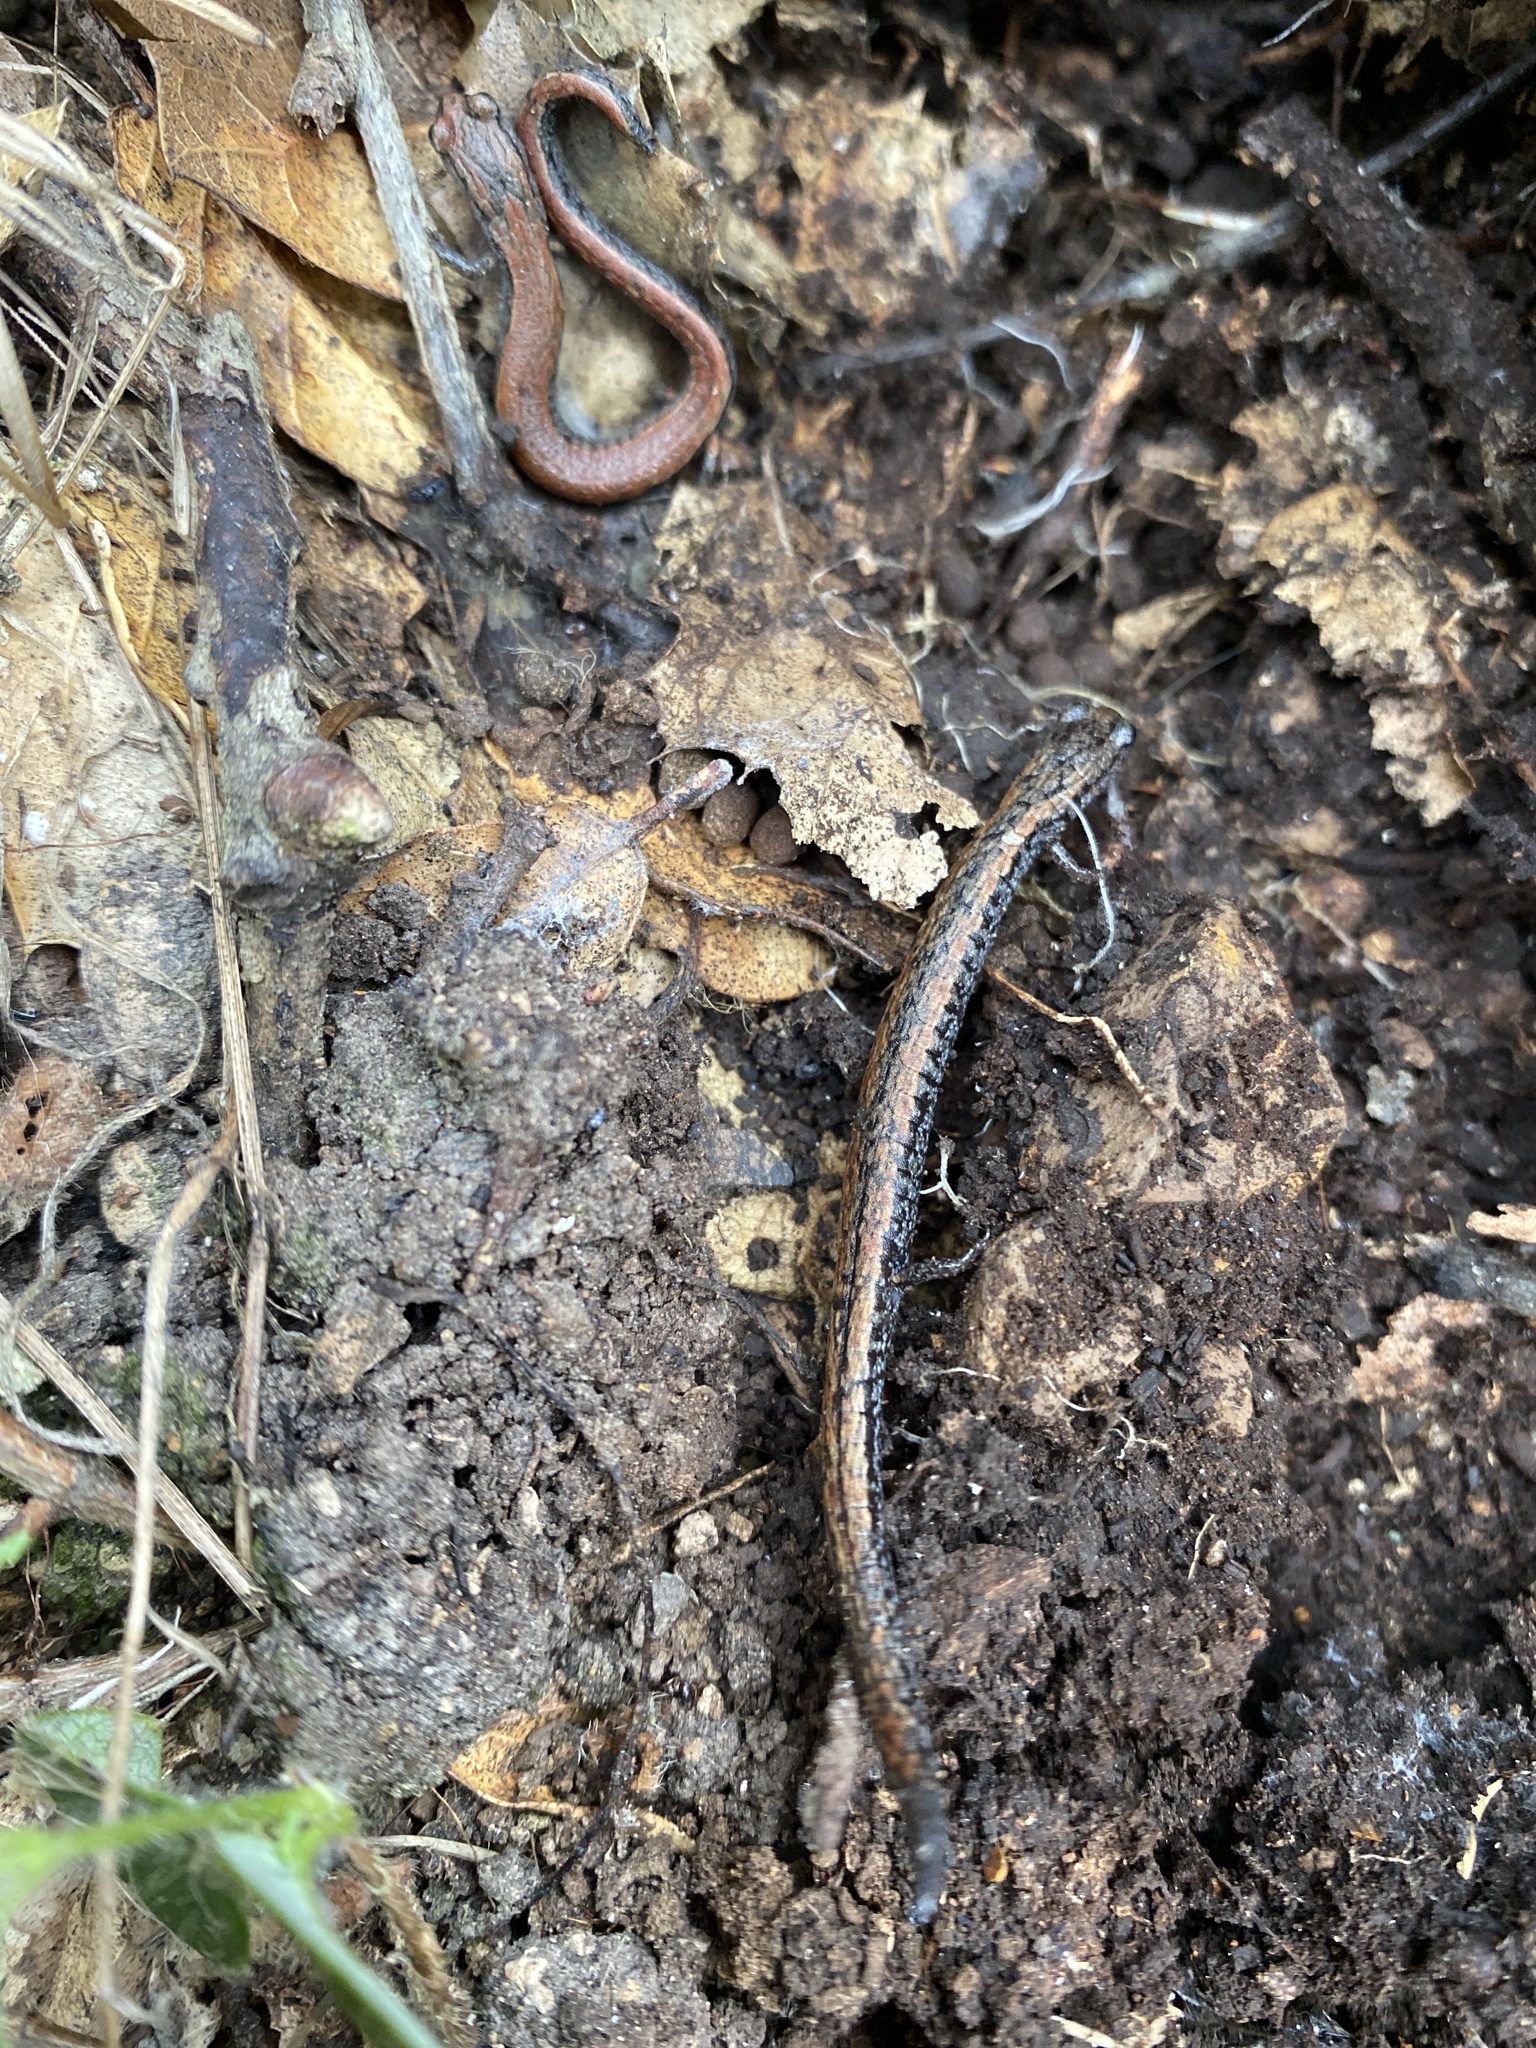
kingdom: Animalia
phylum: Chordata
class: Amphibia
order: Caudata
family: Plethodontidae
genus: Batrachoseps
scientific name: Batrachoseps attenuatus
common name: California slender salamander
